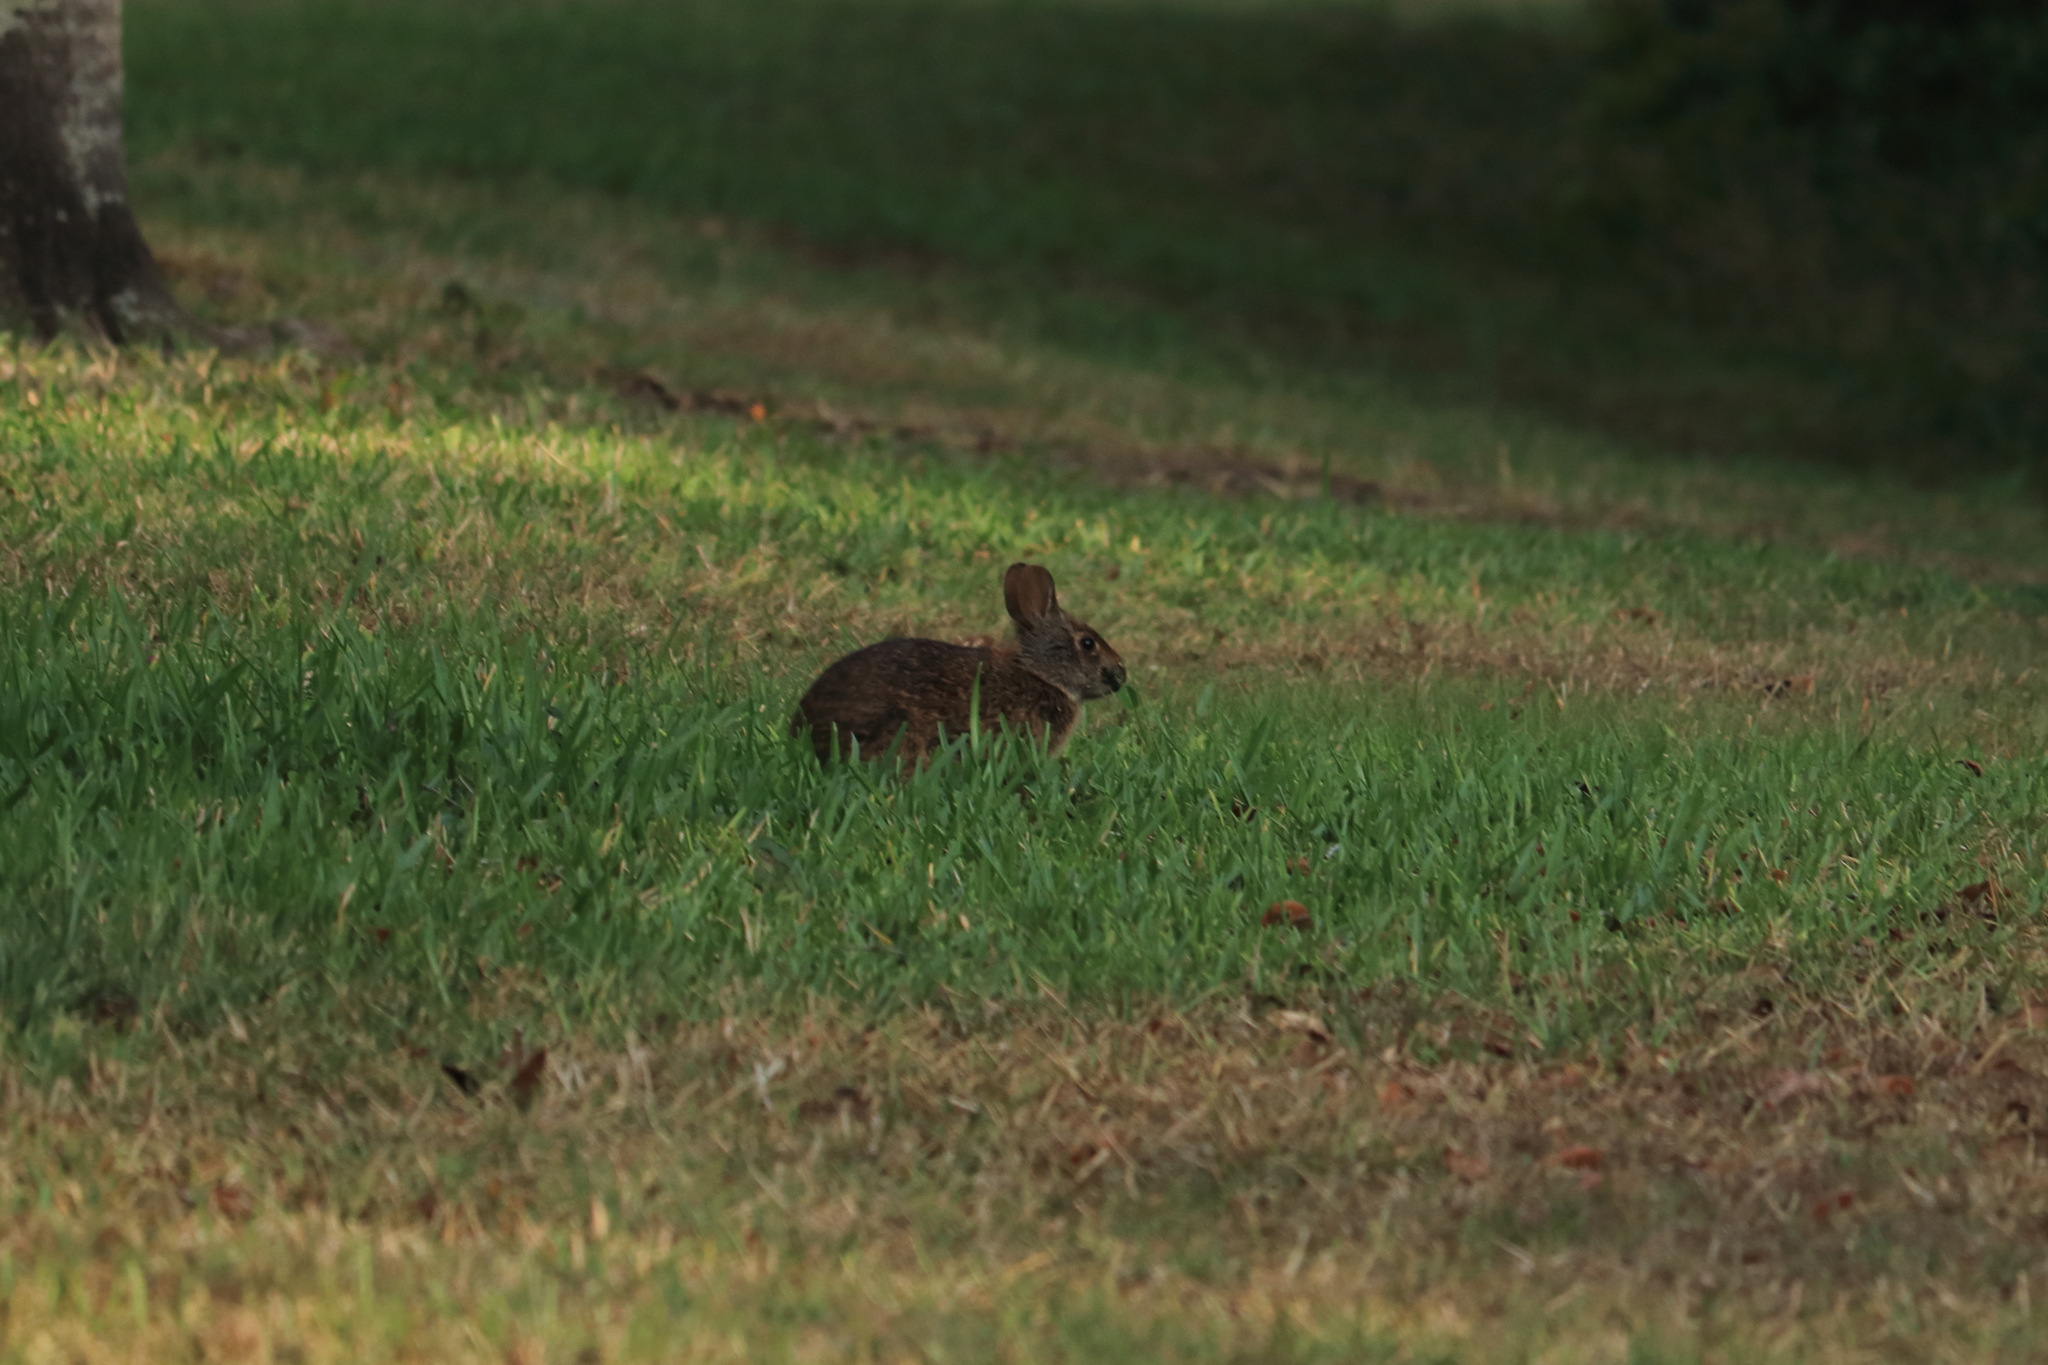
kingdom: Animalia
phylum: Chordata
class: Mammalia
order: Lagomorpha
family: Leporidae
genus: Sylvilagus
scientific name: Sylvilagus palustris
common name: Marsh rabbit
